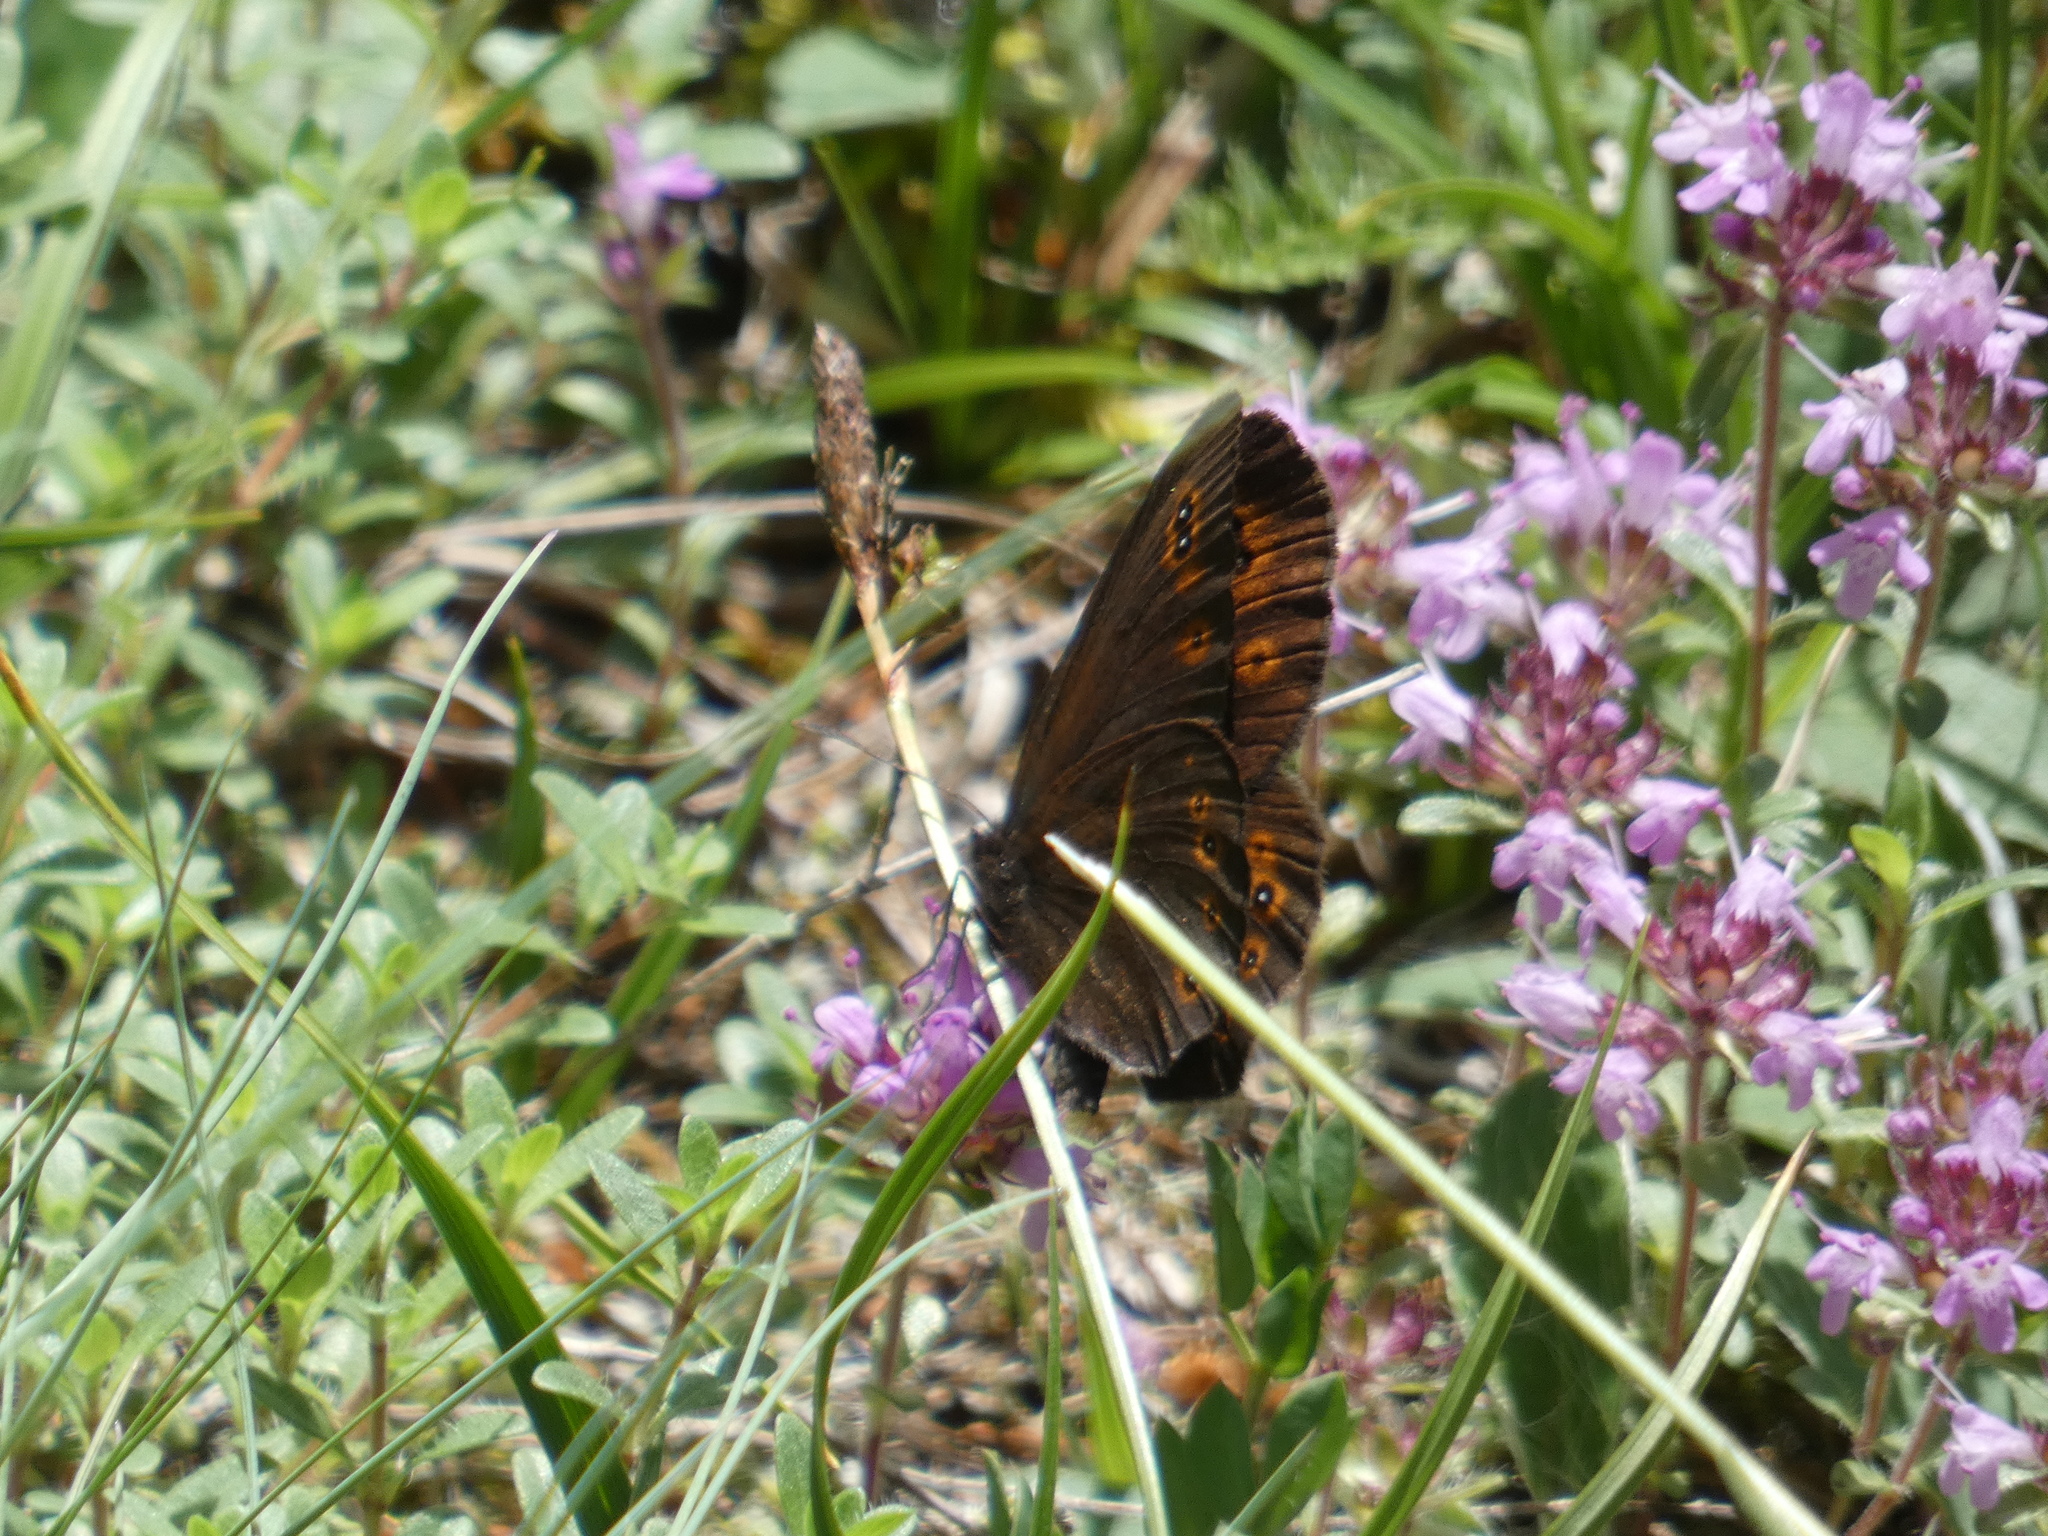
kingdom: Animalia
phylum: Arthropoda
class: Insecta
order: Lepidoptera
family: Nymphalidae
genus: Erebia
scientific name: Erebia medusa
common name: Woodland ringlet
